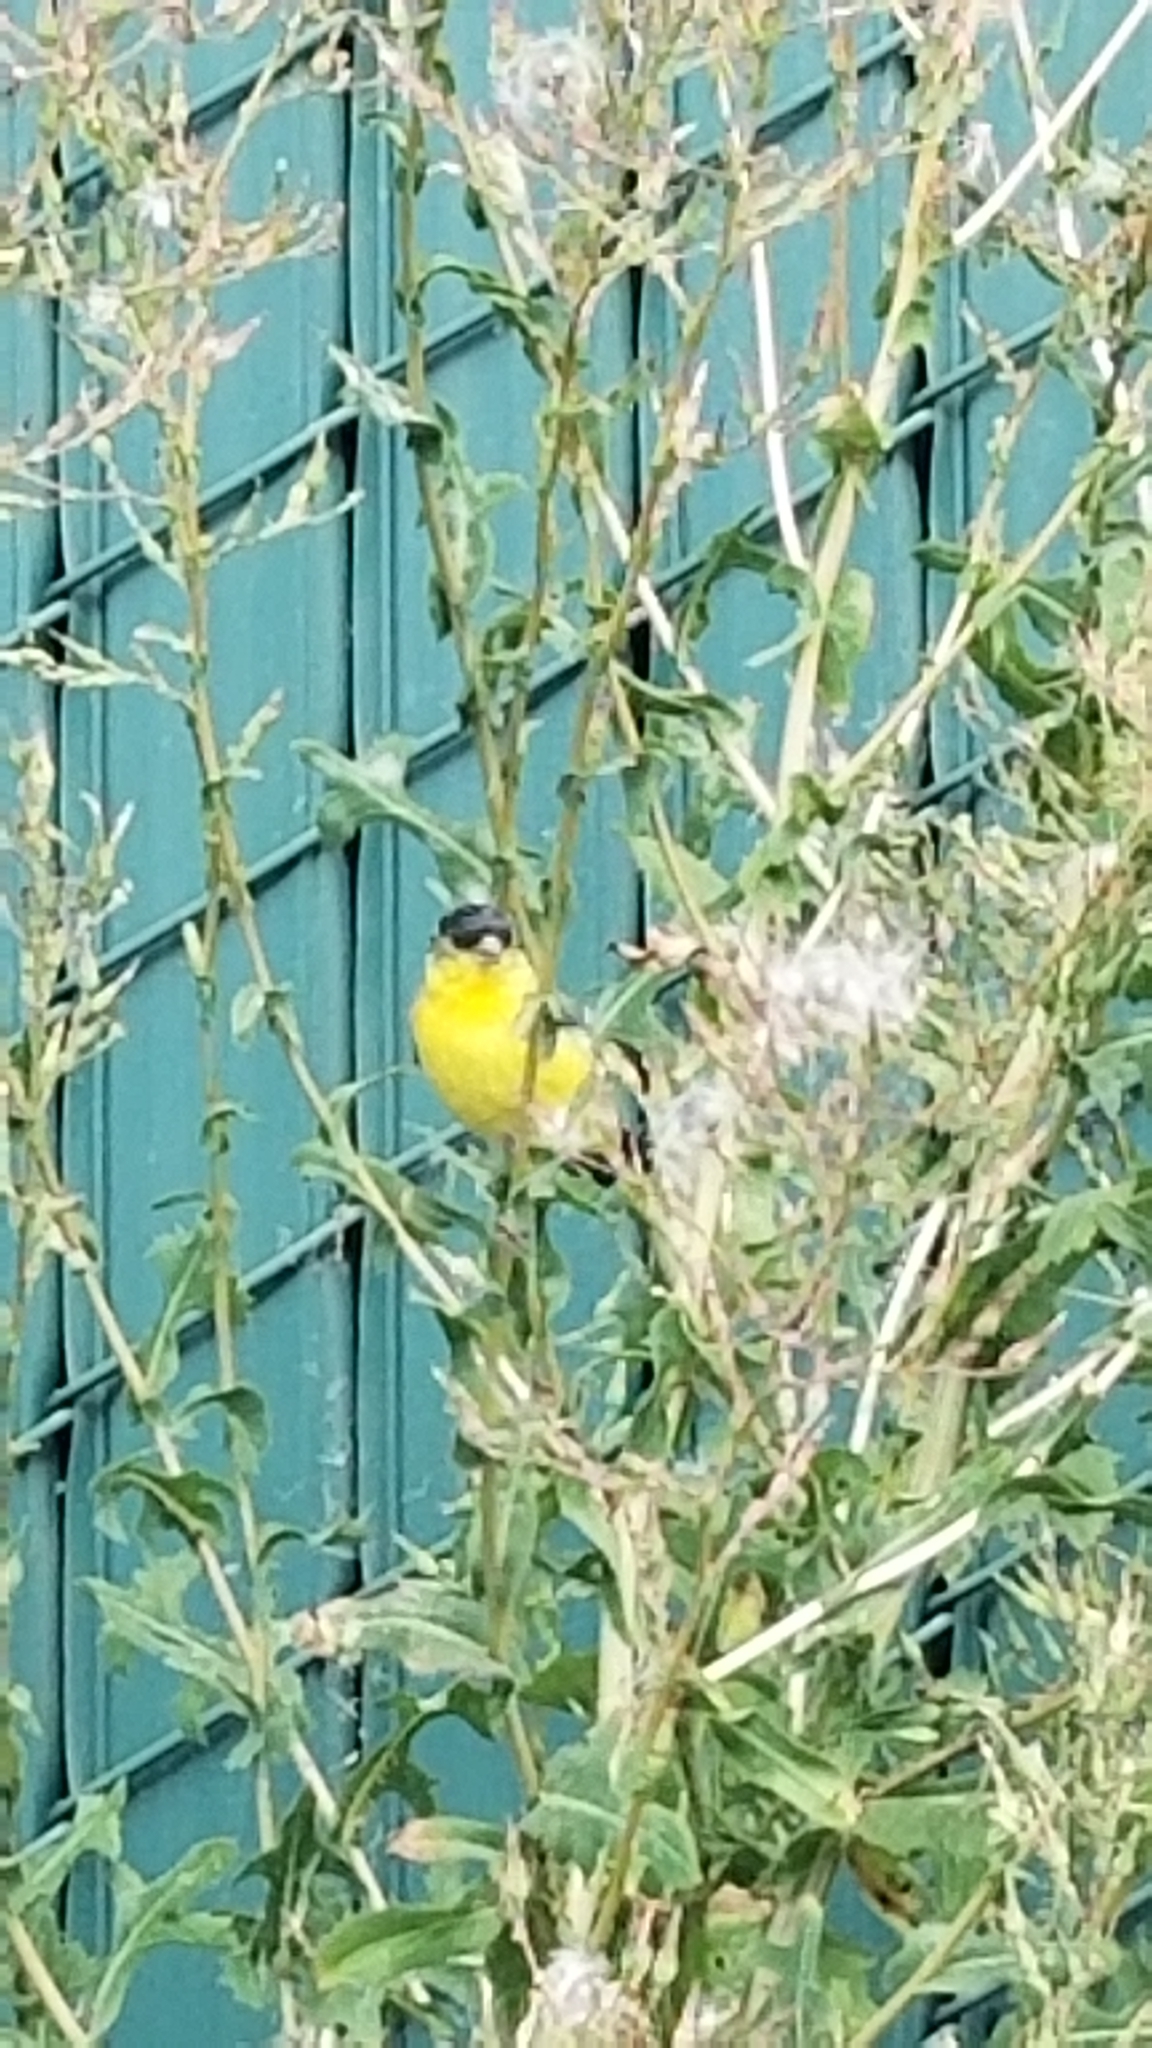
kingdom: Animalia
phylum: Chordata
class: Aves
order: Passeriformes
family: Fringillidae
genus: Spinus
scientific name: Spinus psaltria
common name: Lesser goldfinch
